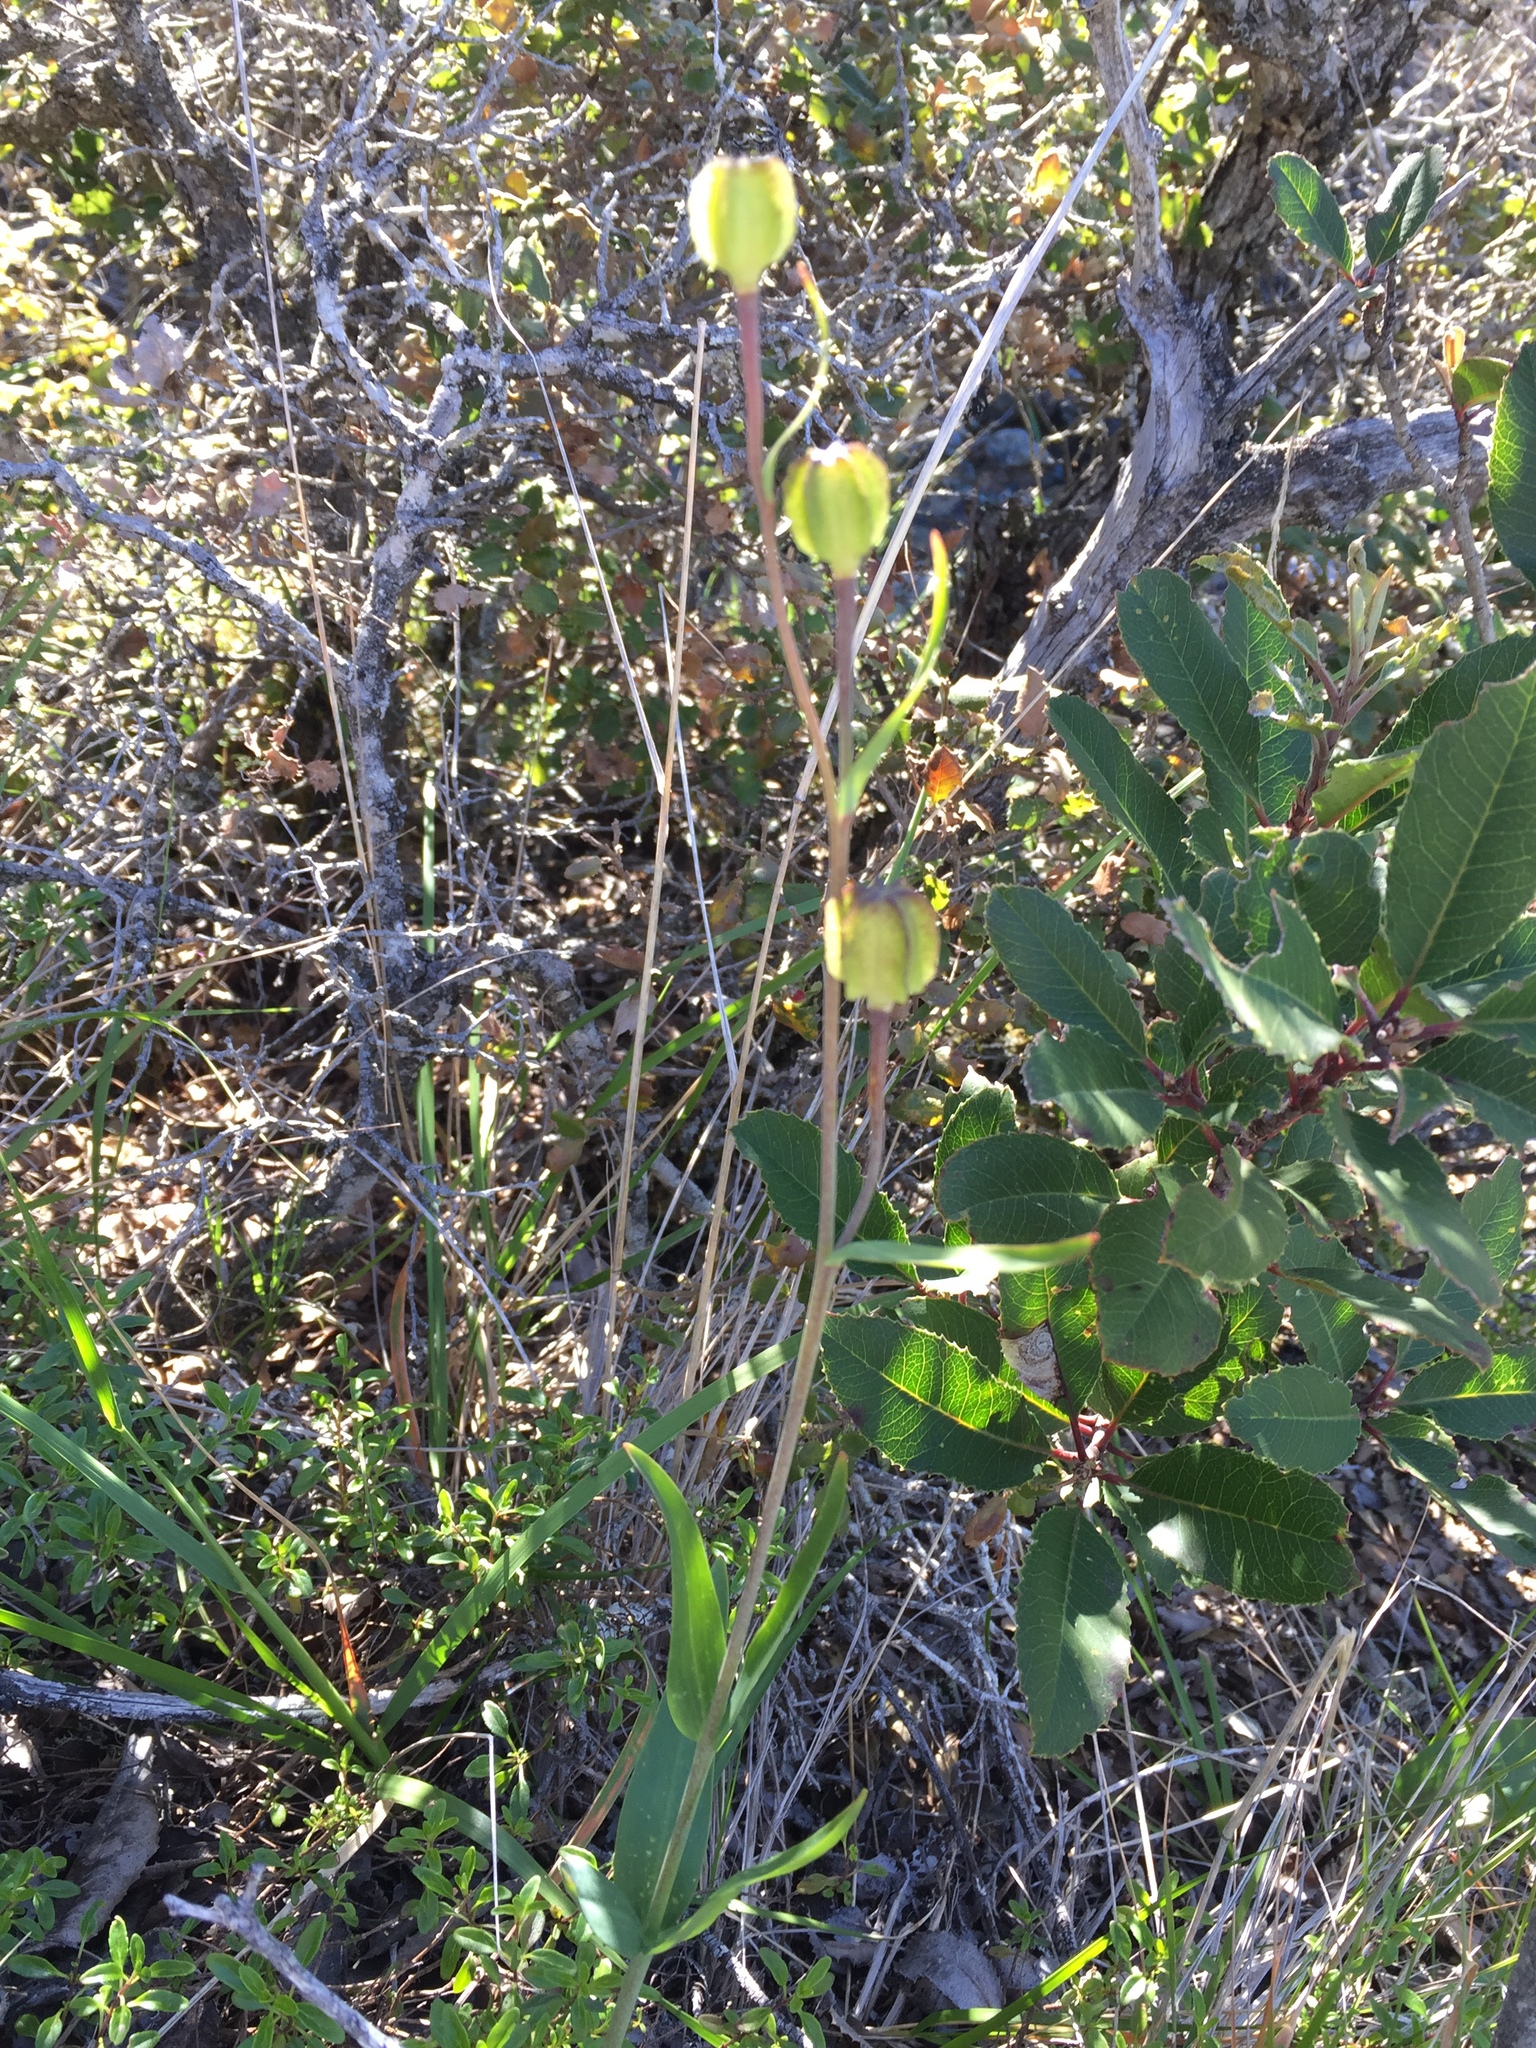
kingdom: Plantae
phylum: Tracheophyta
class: Liliopsida
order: Liliales
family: Liliaceae
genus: Fritillaria
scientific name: Fritillaria affinis
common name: Ojai fritillary
